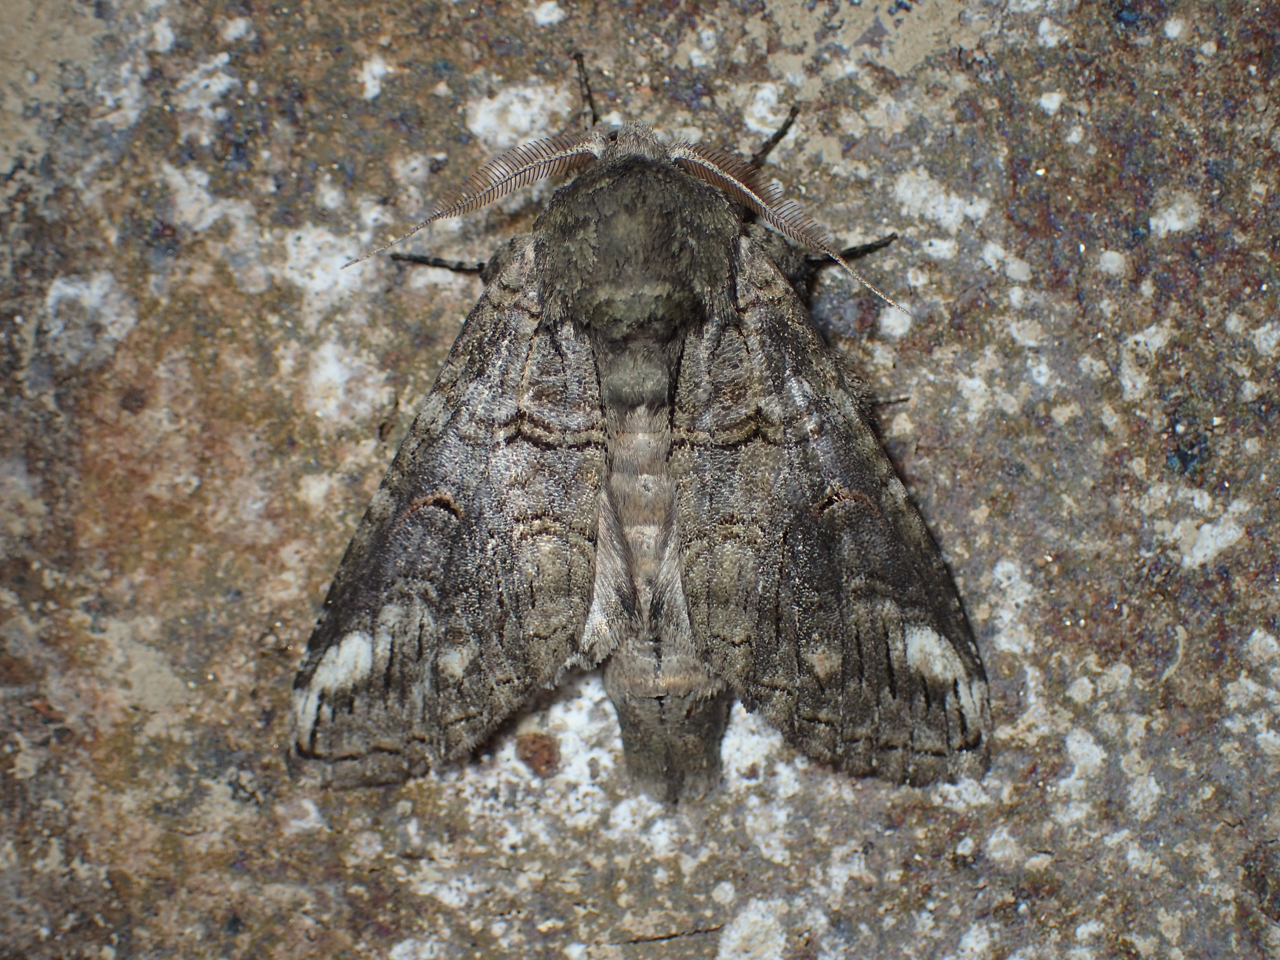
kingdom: Animalia
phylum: Arthropoda
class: Insecta
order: Lepidoptera
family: Notodontidae
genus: Heterocampa
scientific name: Heterocampa obliqua
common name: Oblique heterocampa
